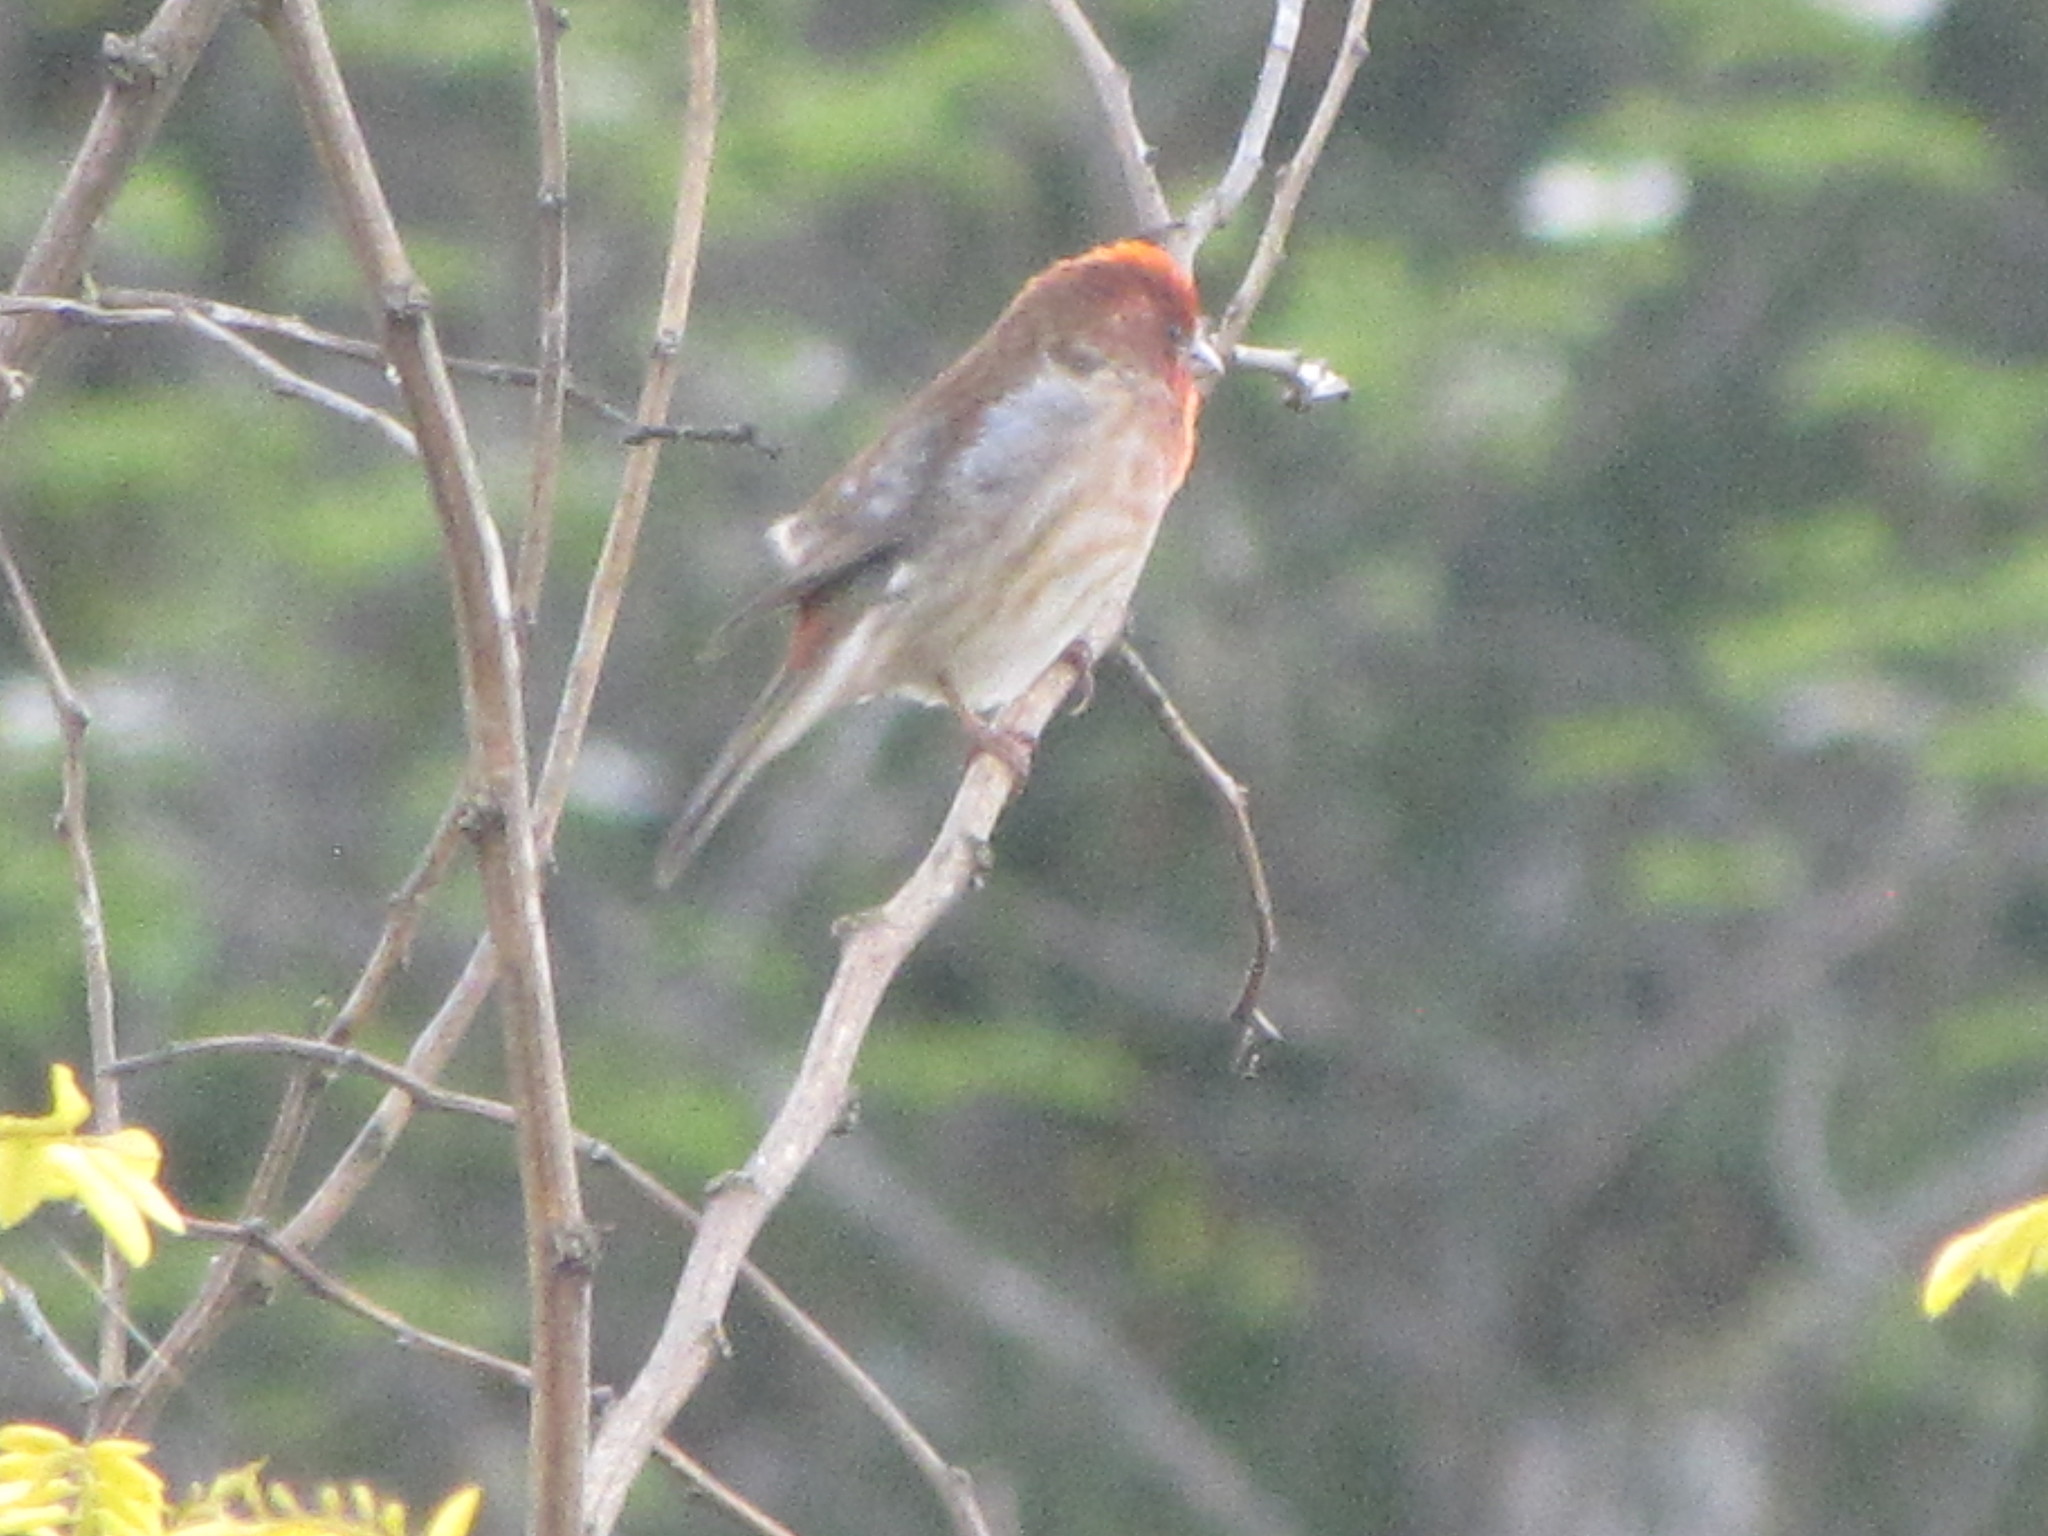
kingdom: Animalia
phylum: Chordata
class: Aves
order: Passeriformes
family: Fringillidae
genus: Haemorhous
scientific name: Haemorhous mexicanus
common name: House finch
